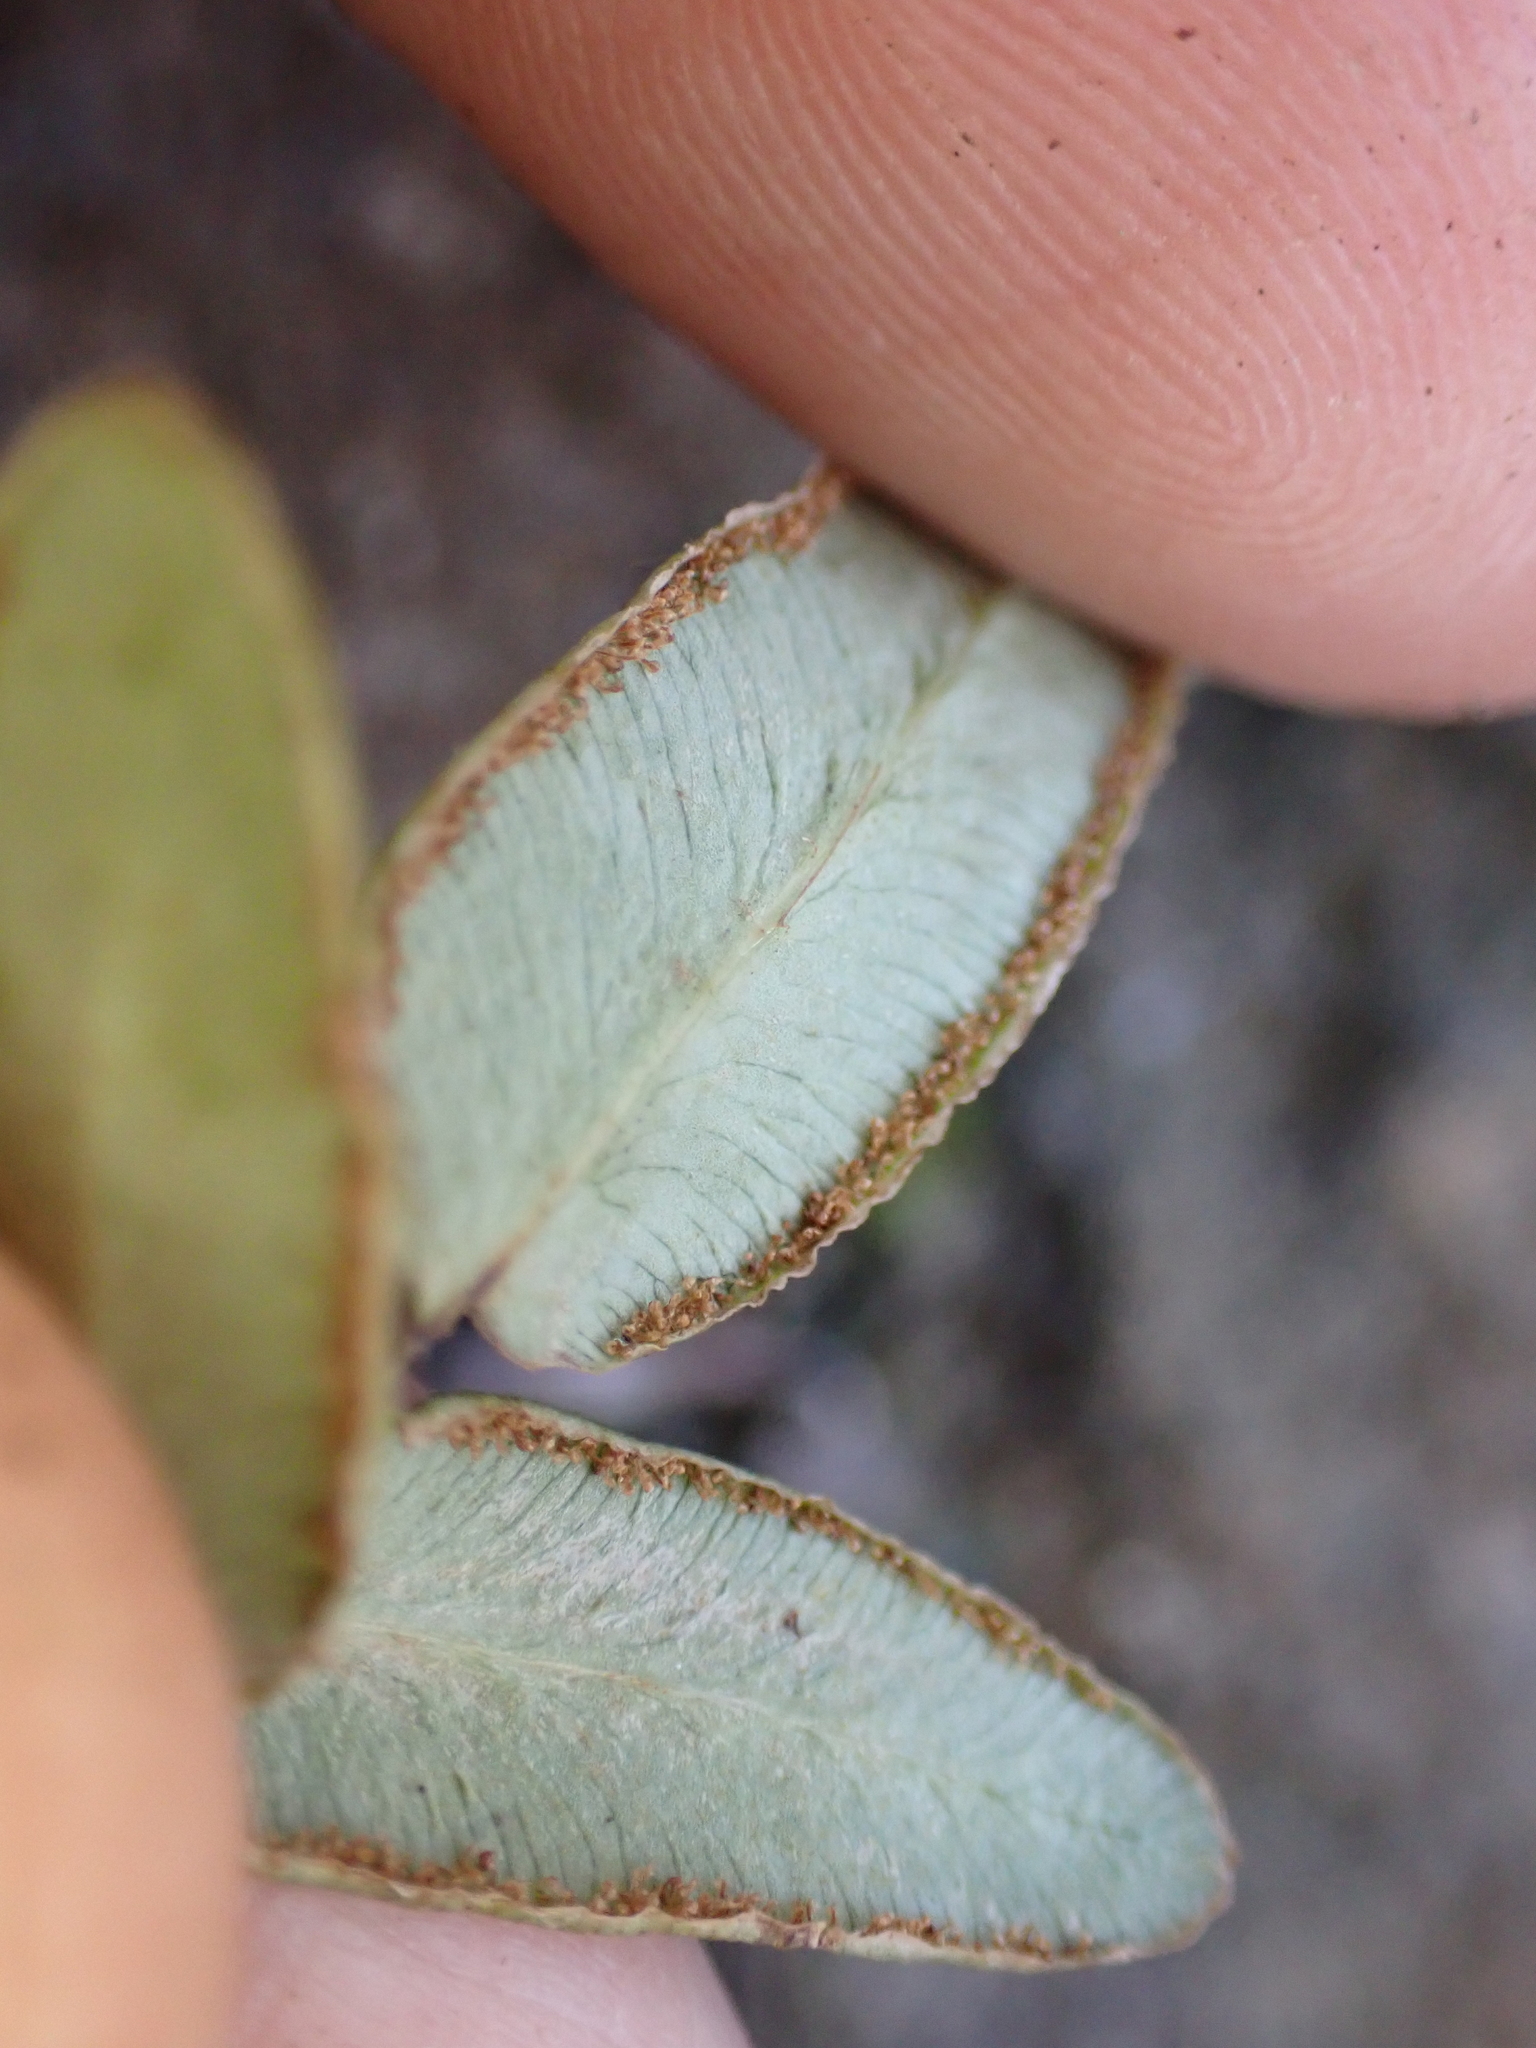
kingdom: Plantae
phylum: Tracheophyta
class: Polypodiopsida
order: Polypodiales
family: Pteridaceae
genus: Pellaea
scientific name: Pellaea atropurpurea
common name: Hairy cliffbrake
